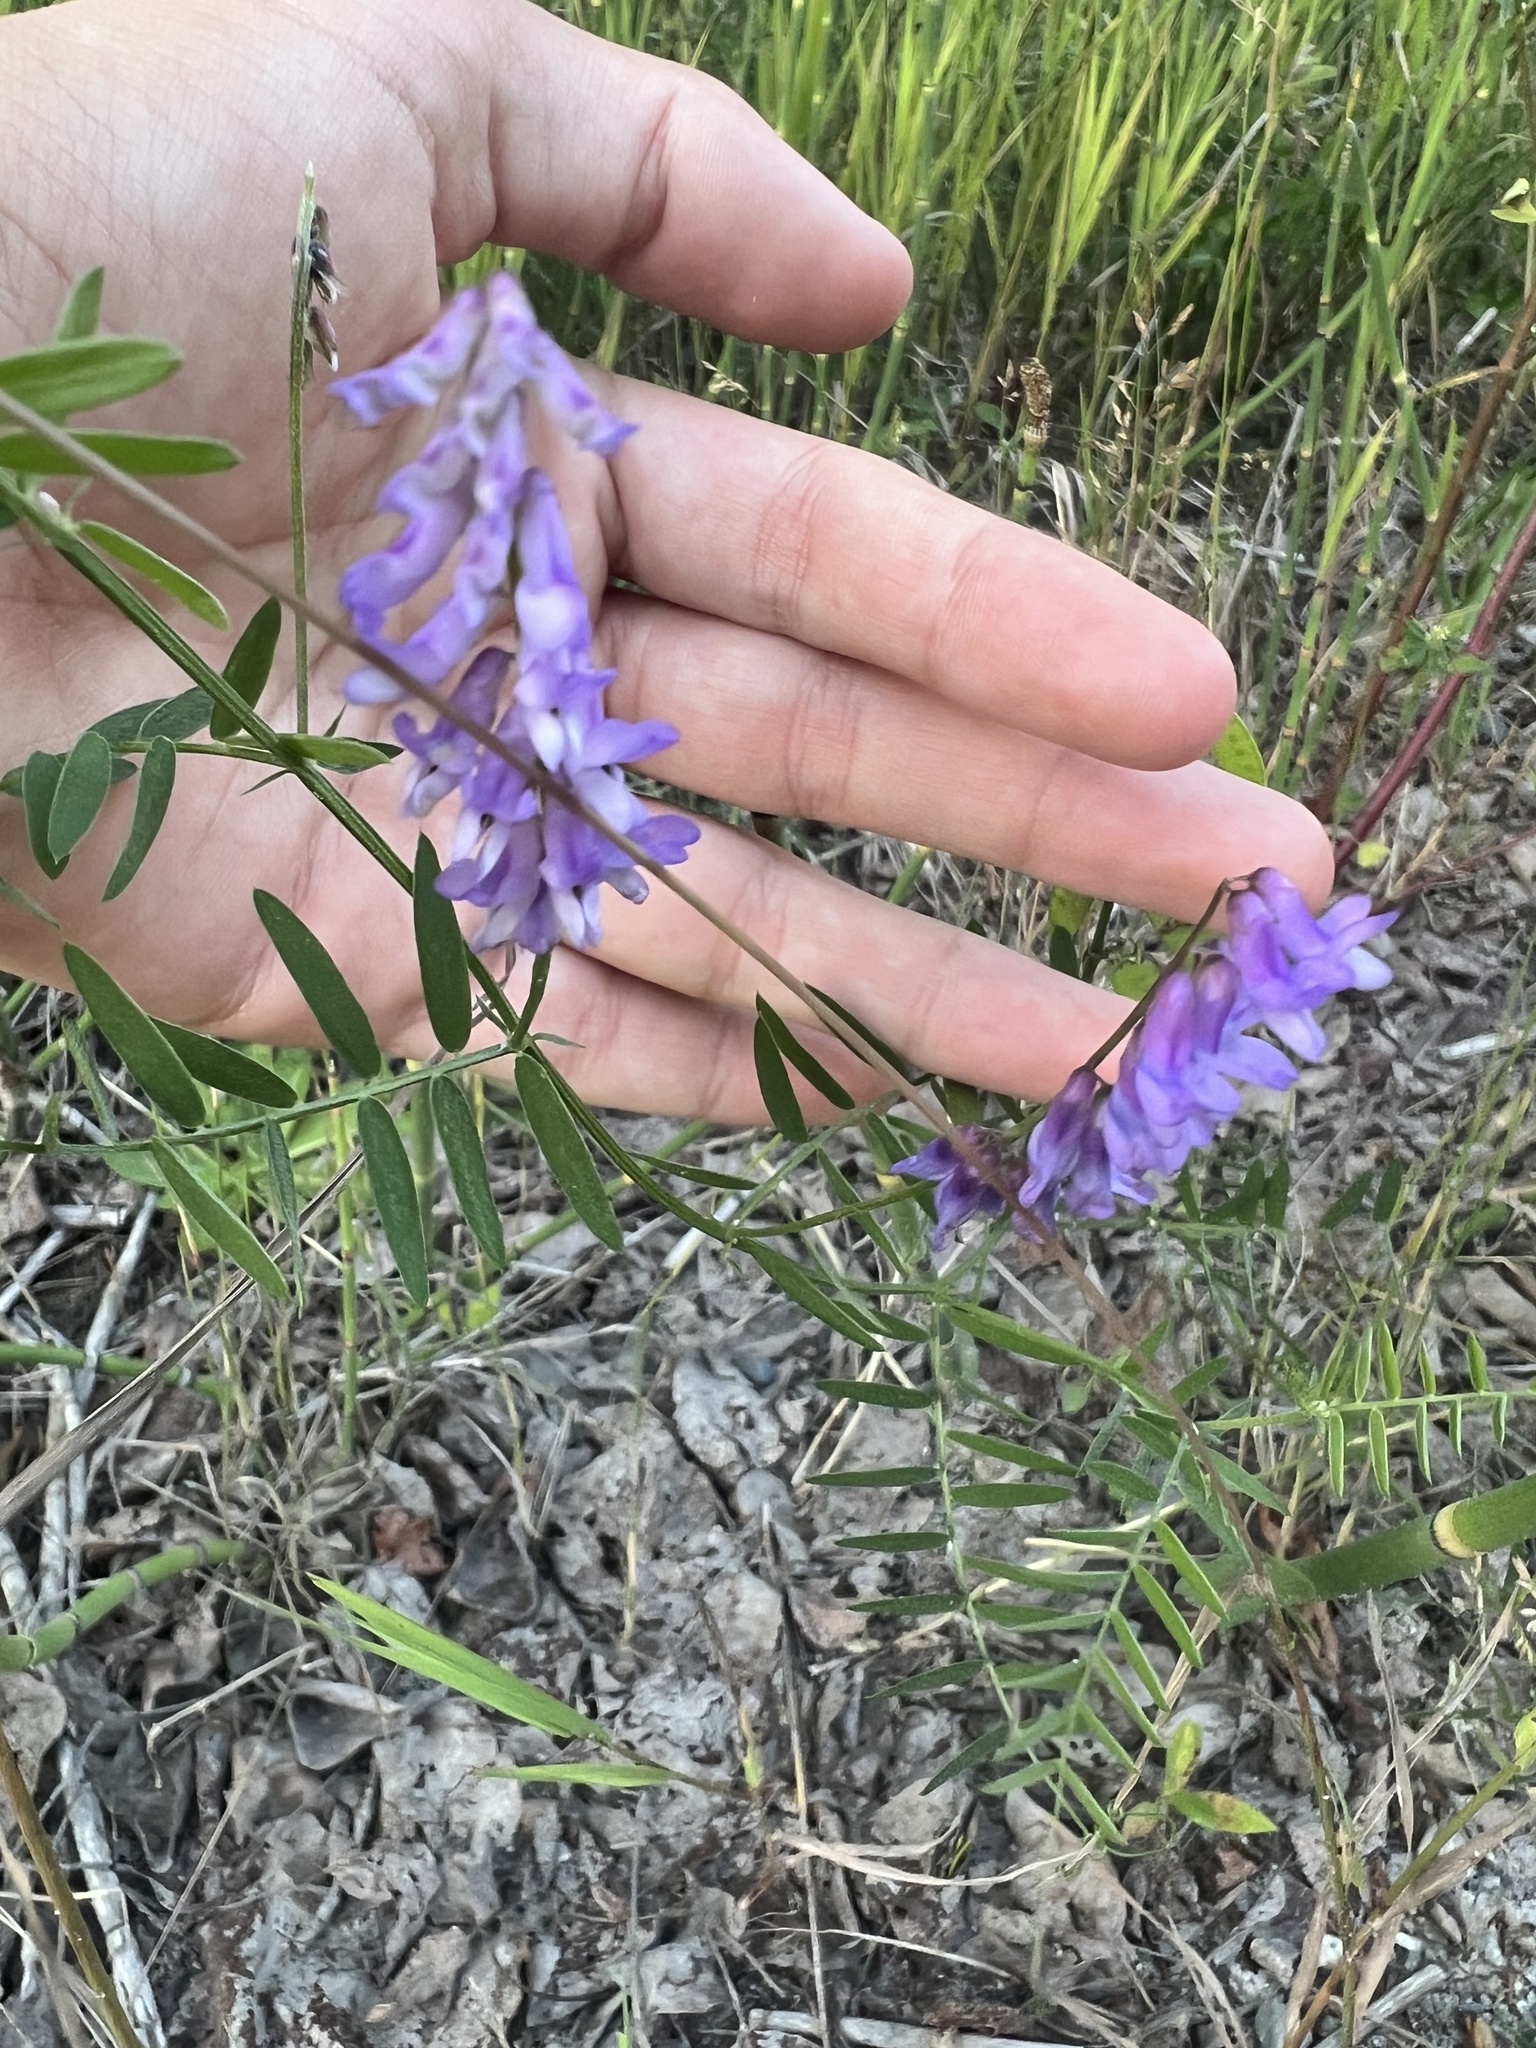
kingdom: Plantae
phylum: Tracheophyta
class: Magnoliopsida
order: Fabales
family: Fabaceae
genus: Vicia
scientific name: Vicia cracca
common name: Bird vetch
